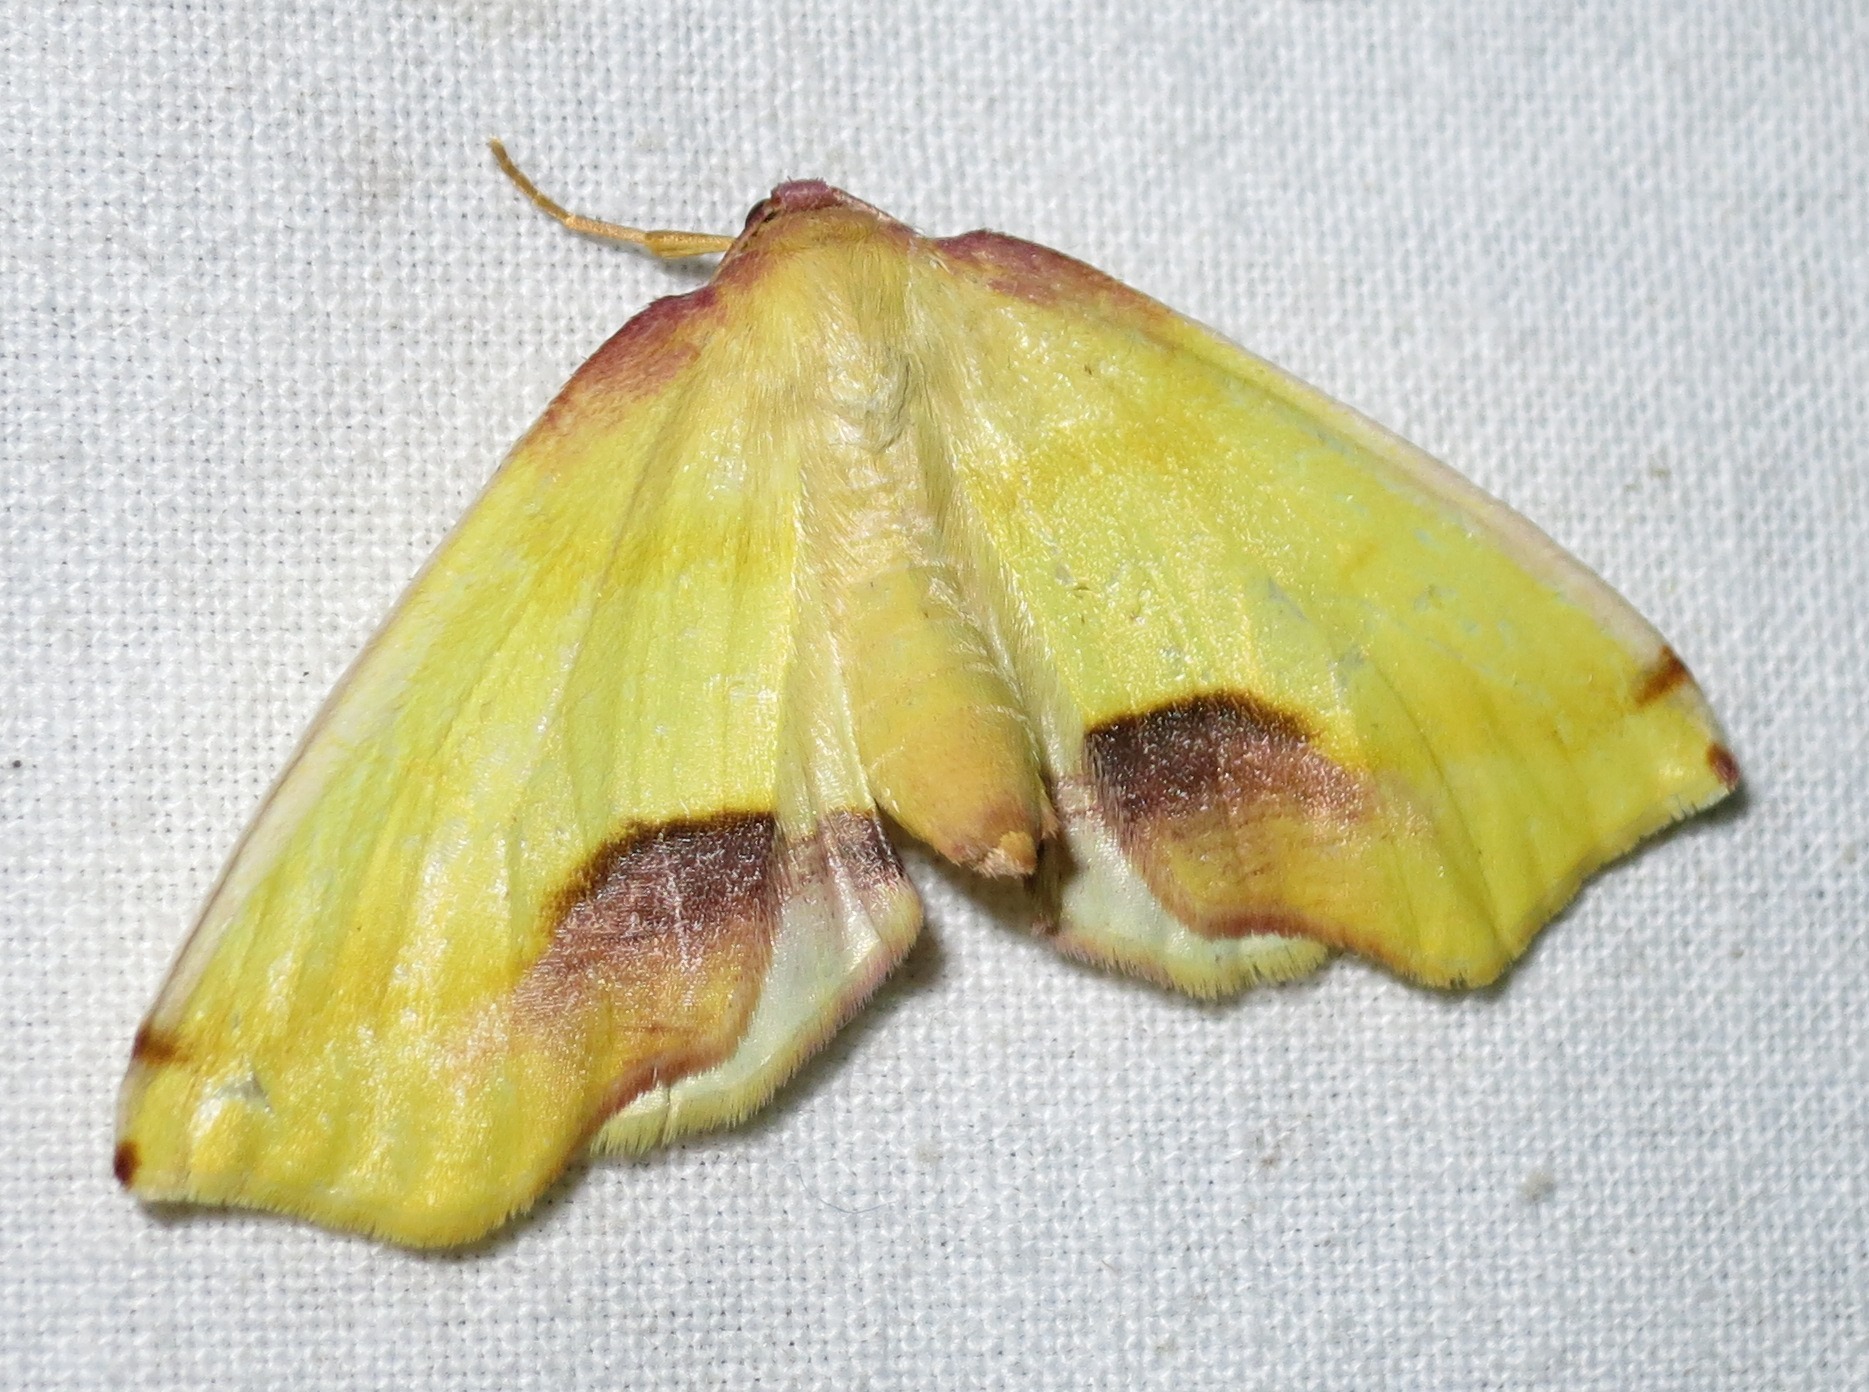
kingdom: Animalia
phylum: Arthropoda
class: Insecta
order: Lepidoptera
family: Geometridae
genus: Plagodis
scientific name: Plagodis serinaria
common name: Lemon plagodis
